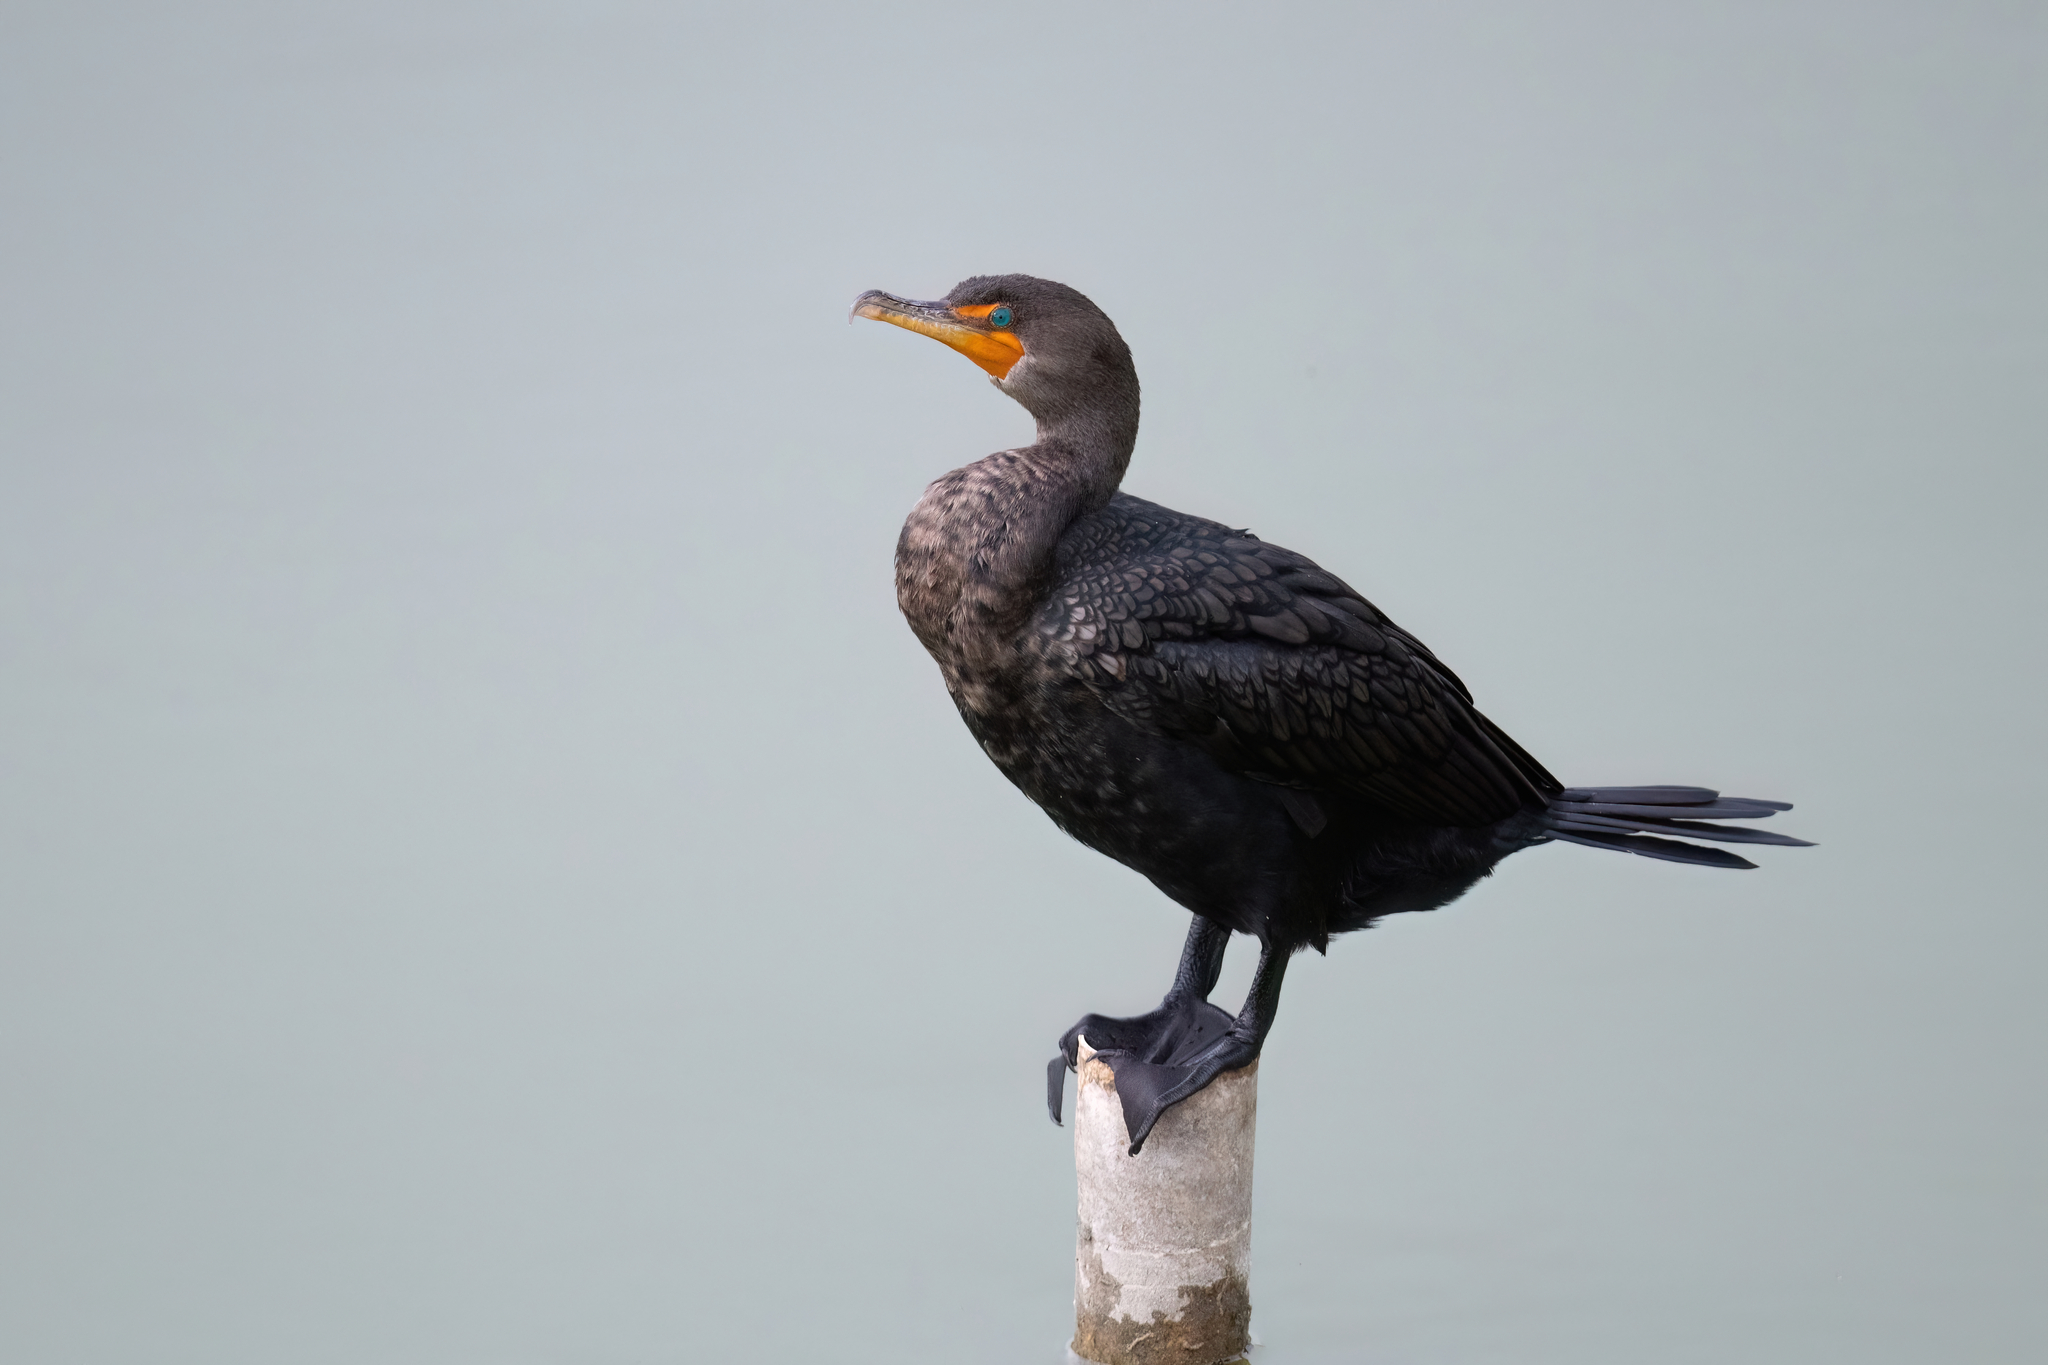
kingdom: Animalia
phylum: Chordata
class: Aves
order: Suliformes
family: Phalacrocoracidae
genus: Phalacrocorax
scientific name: Phalacrocorax auritus
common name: Double-crested cormorant
